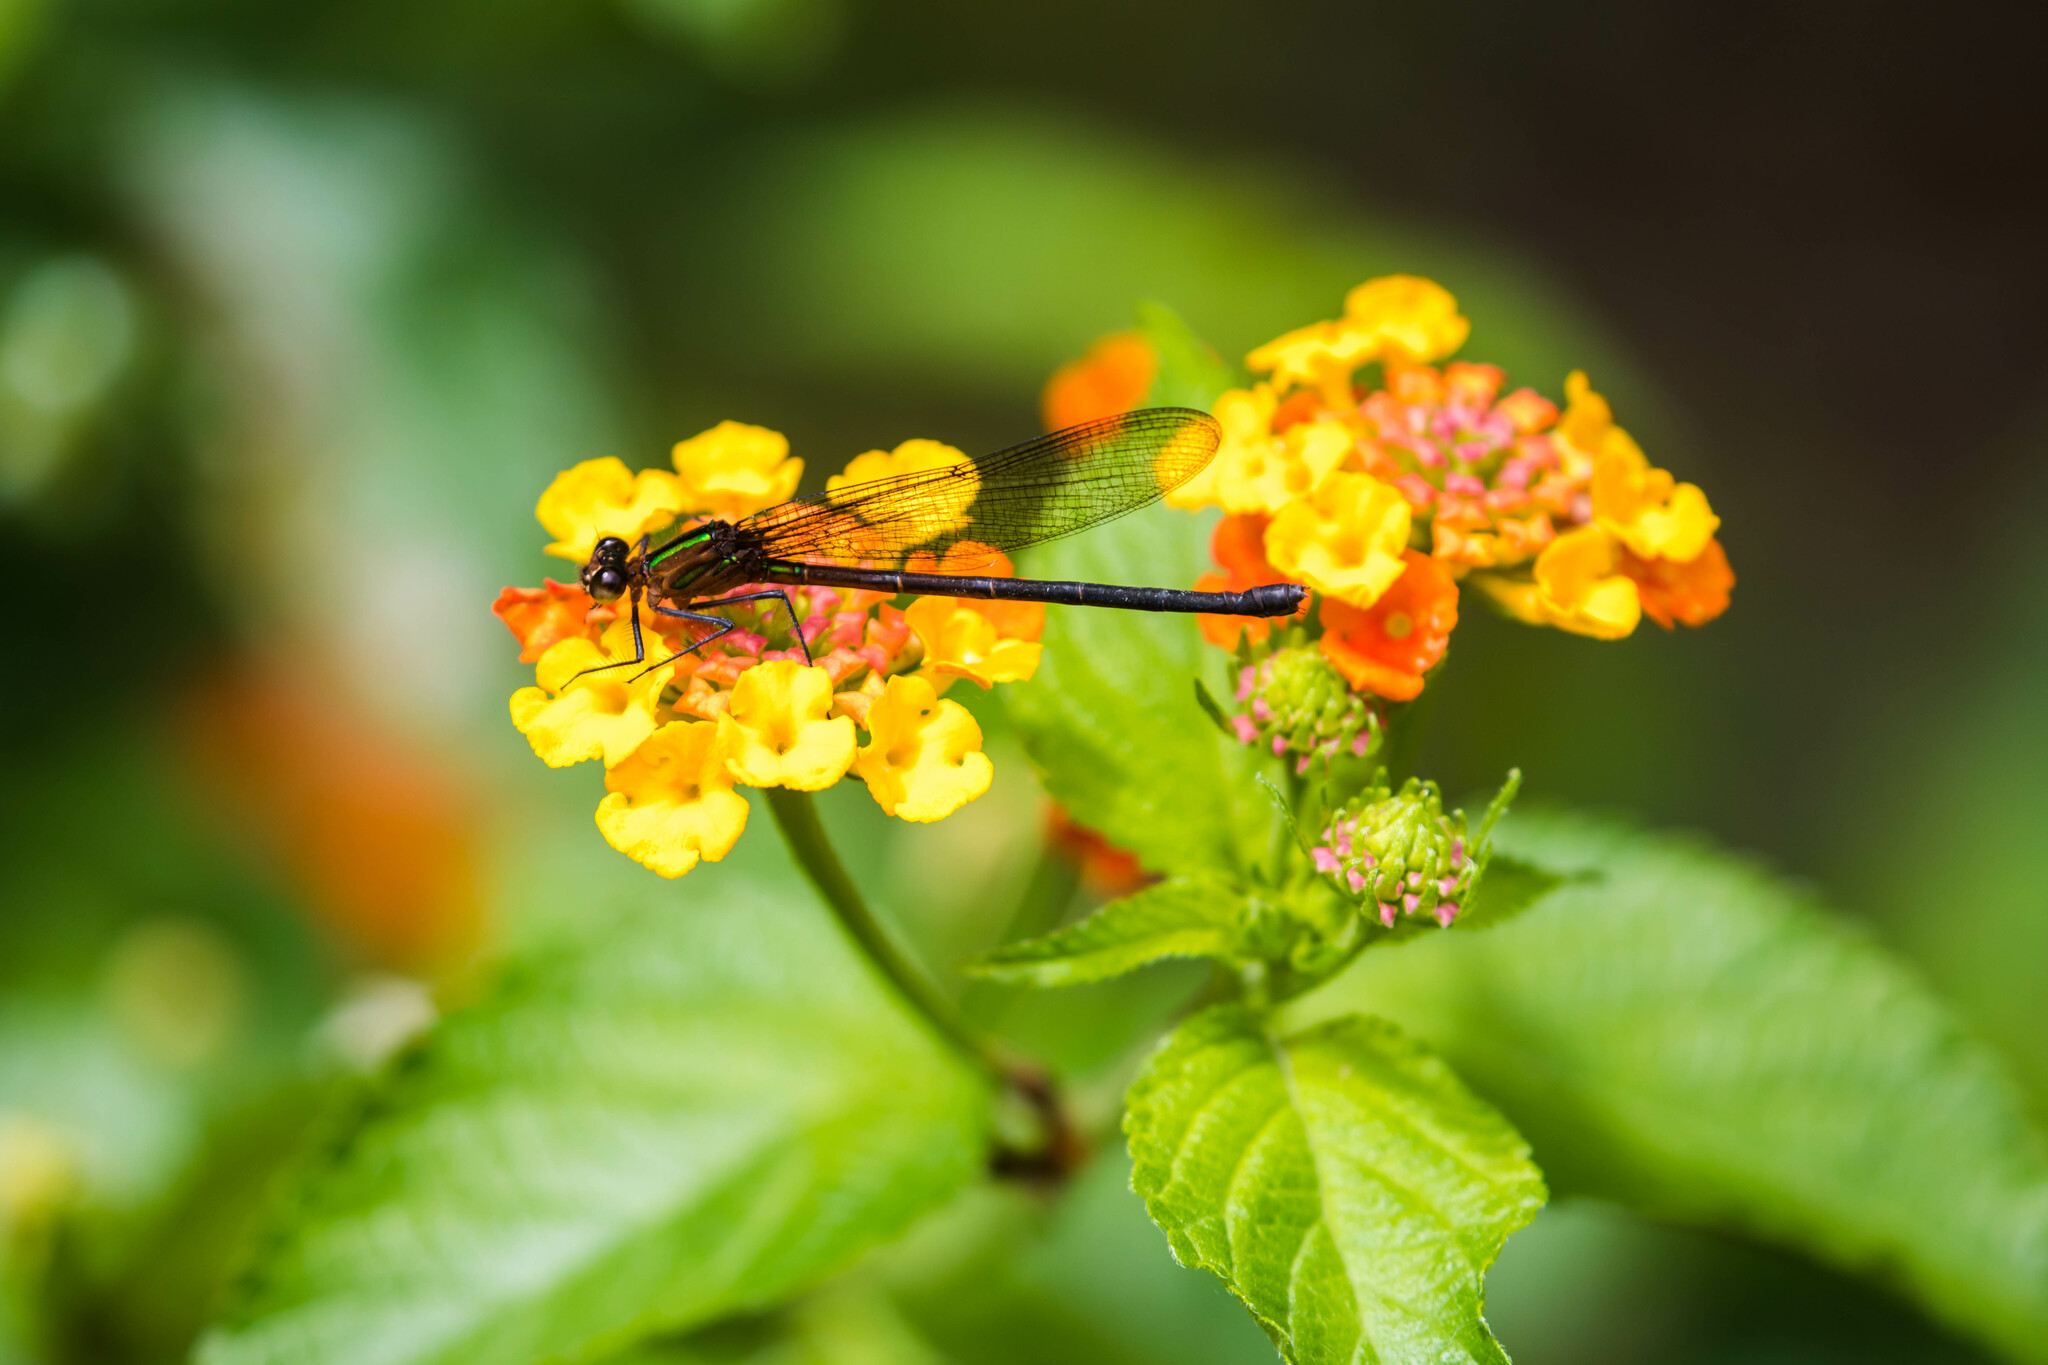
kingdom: Animalia
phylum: Arthropoda
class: Insecta
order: Odonata
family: Calopterygidae
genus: Hetaerina
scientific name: Hetaerina cruentata
